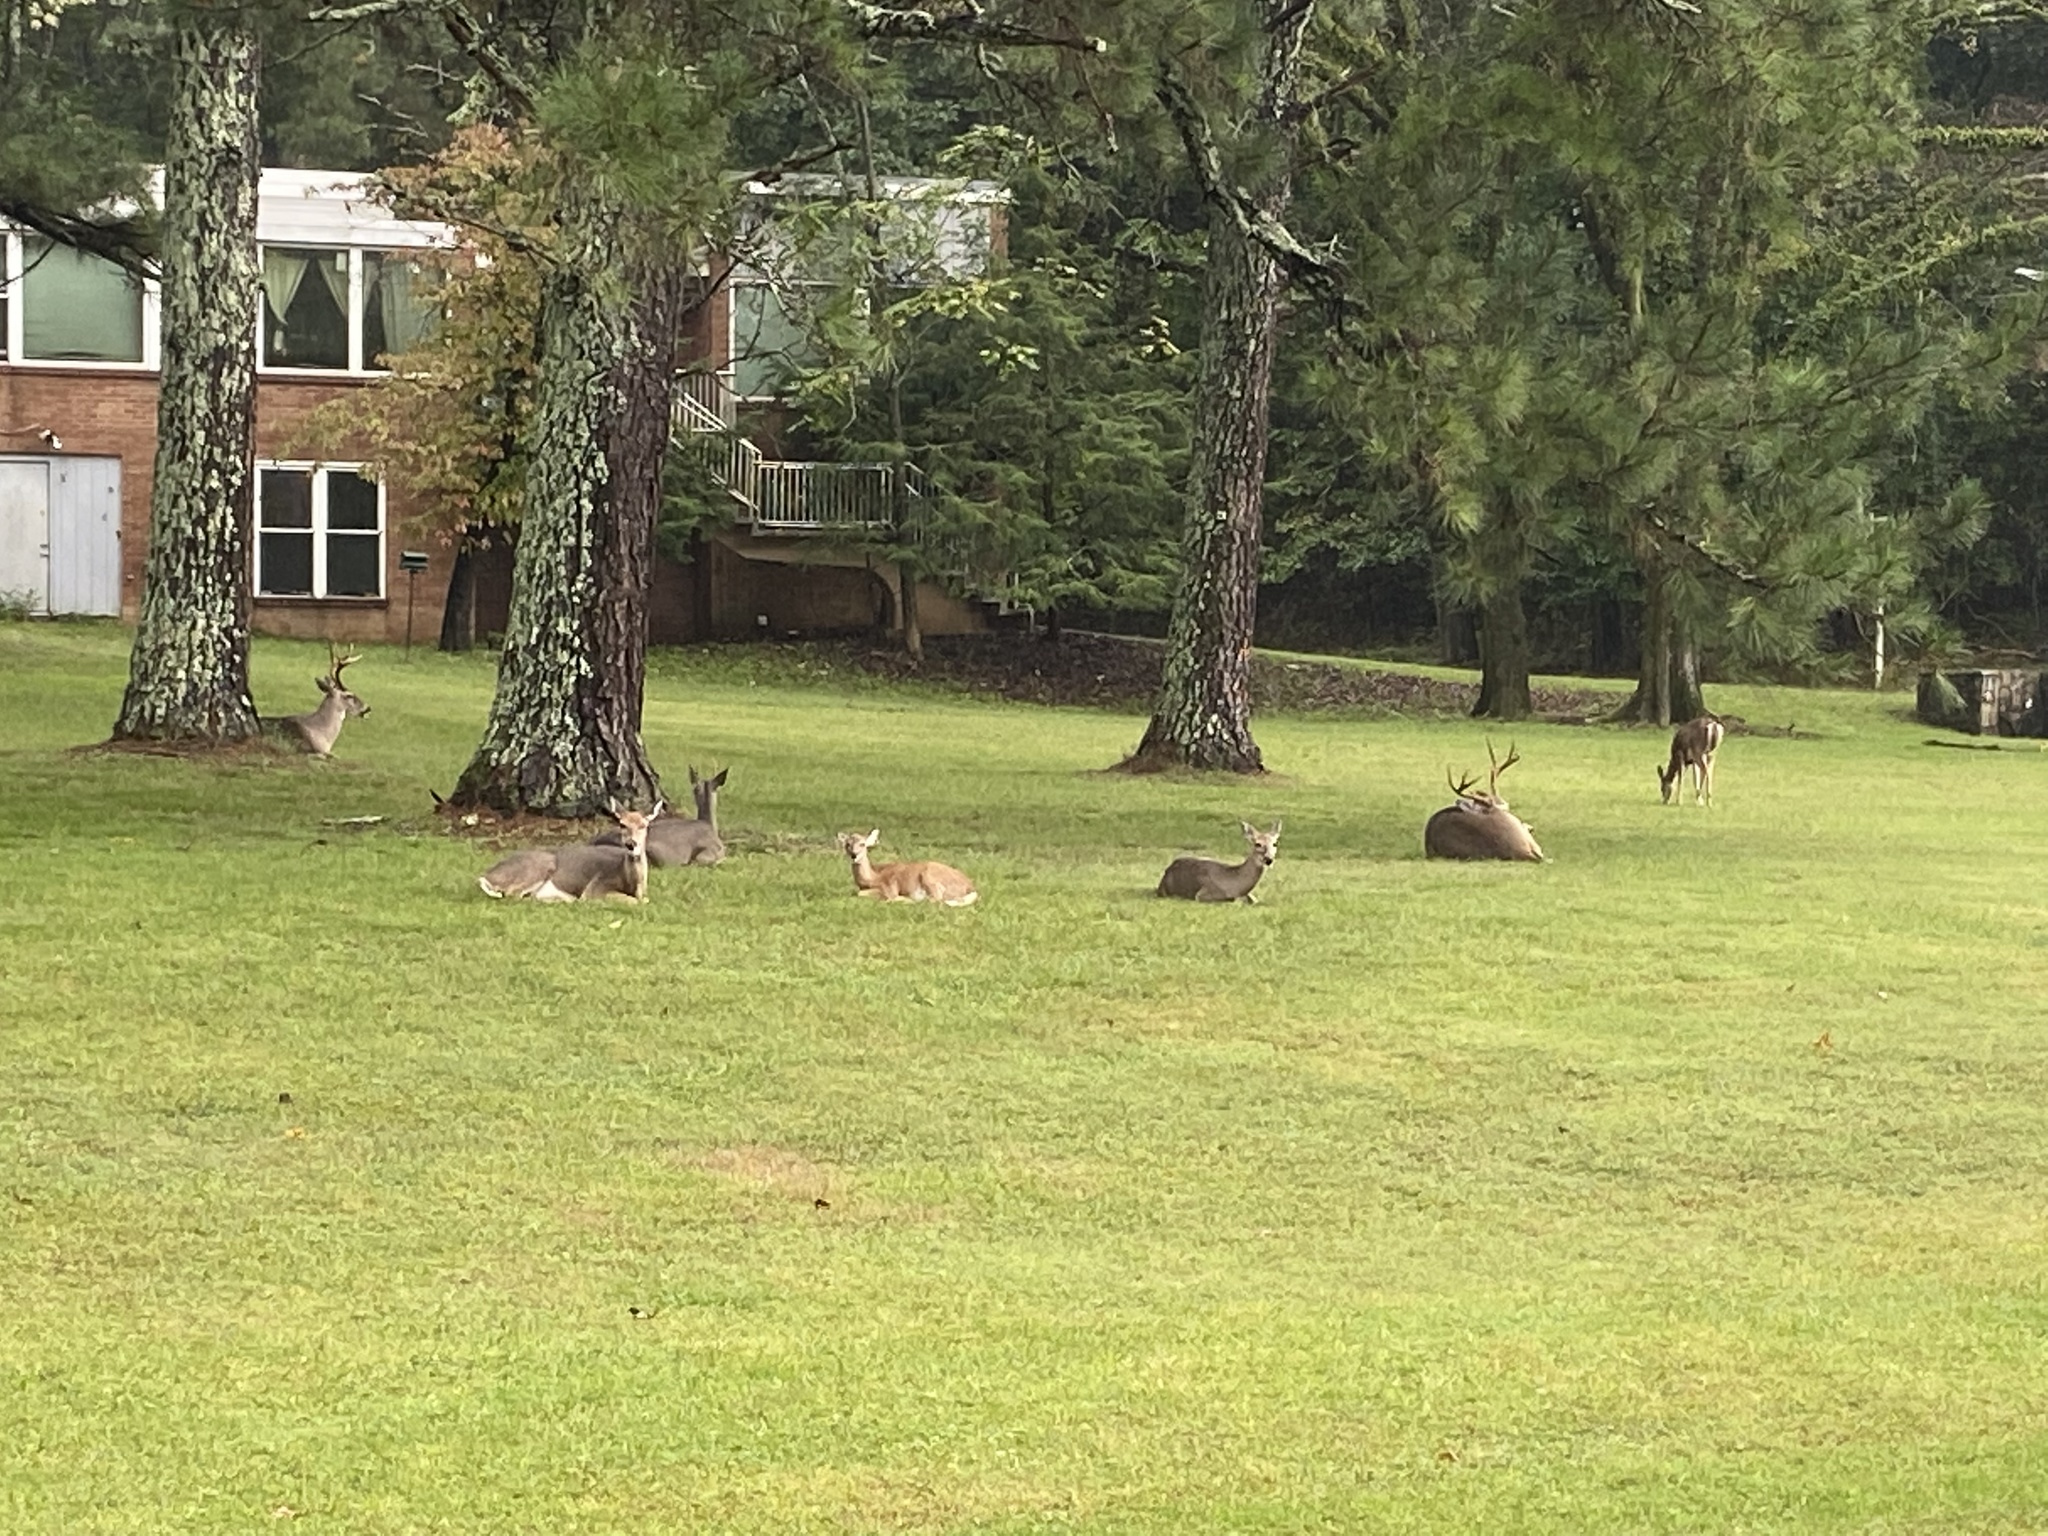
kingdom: Animalia
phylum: Chordata
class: Mammalia
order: Artiodactyla
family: Cervidae
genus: Odocoileus
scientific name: Odocoileus virginianus
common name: White-tailed deer
